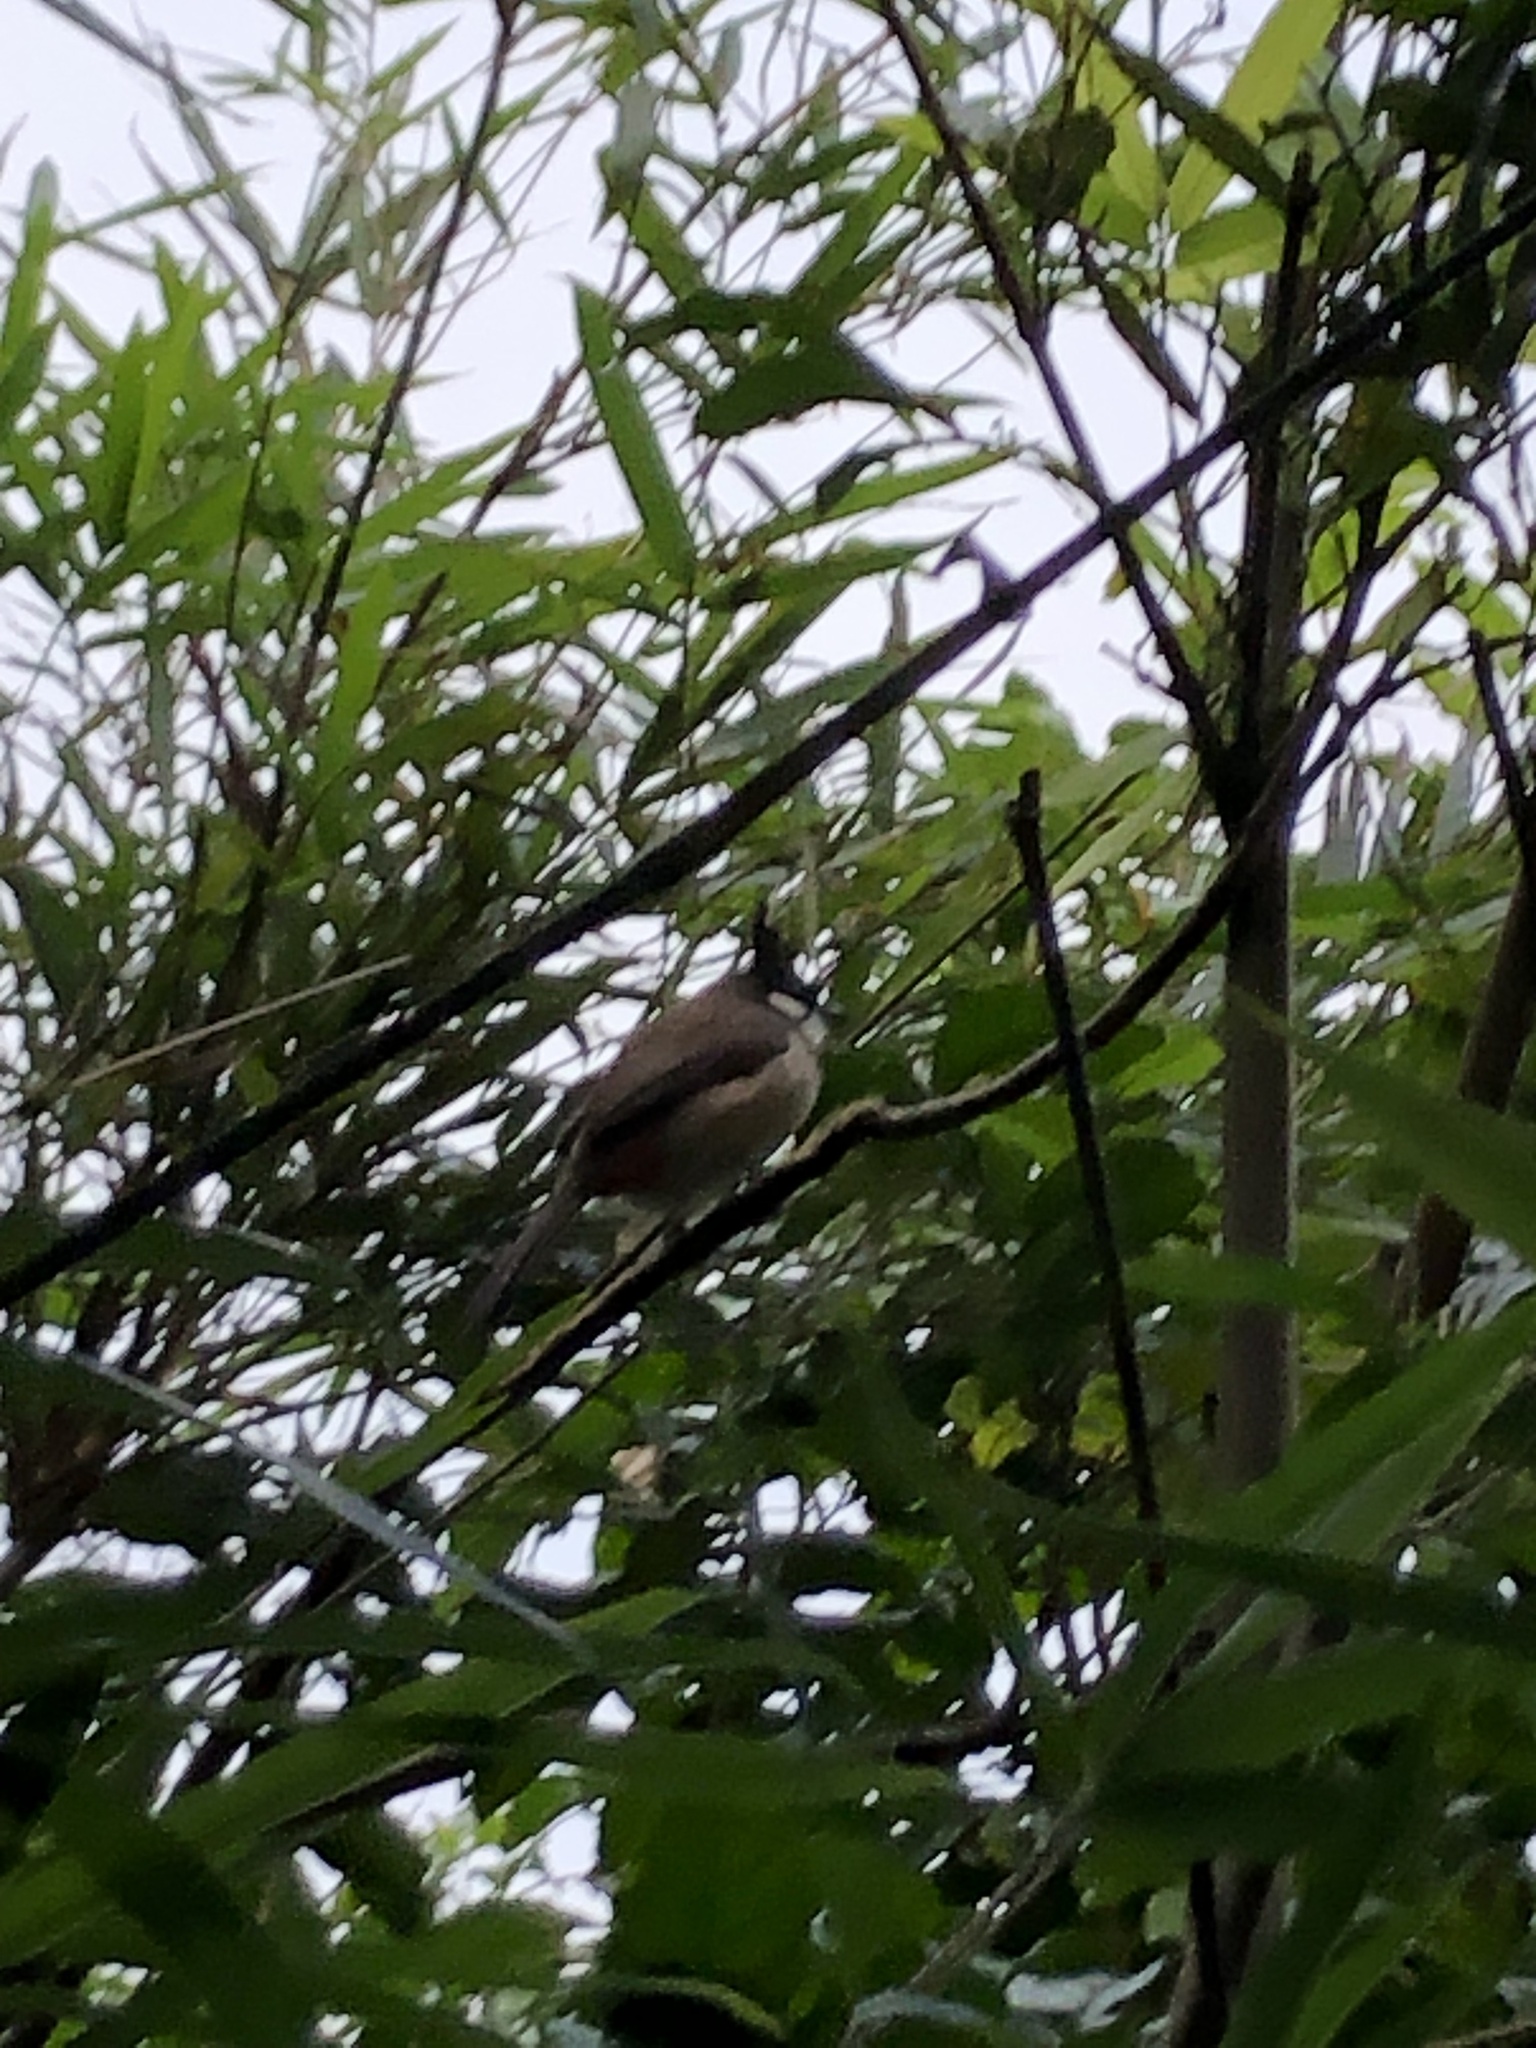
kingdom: Animalia
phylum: Chordata
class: Aves
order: Passeriformes
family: Pycnonotidae
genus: Pycnonotus
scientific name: Pycnonotus jocosus
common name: Red-whiskered bulbul
